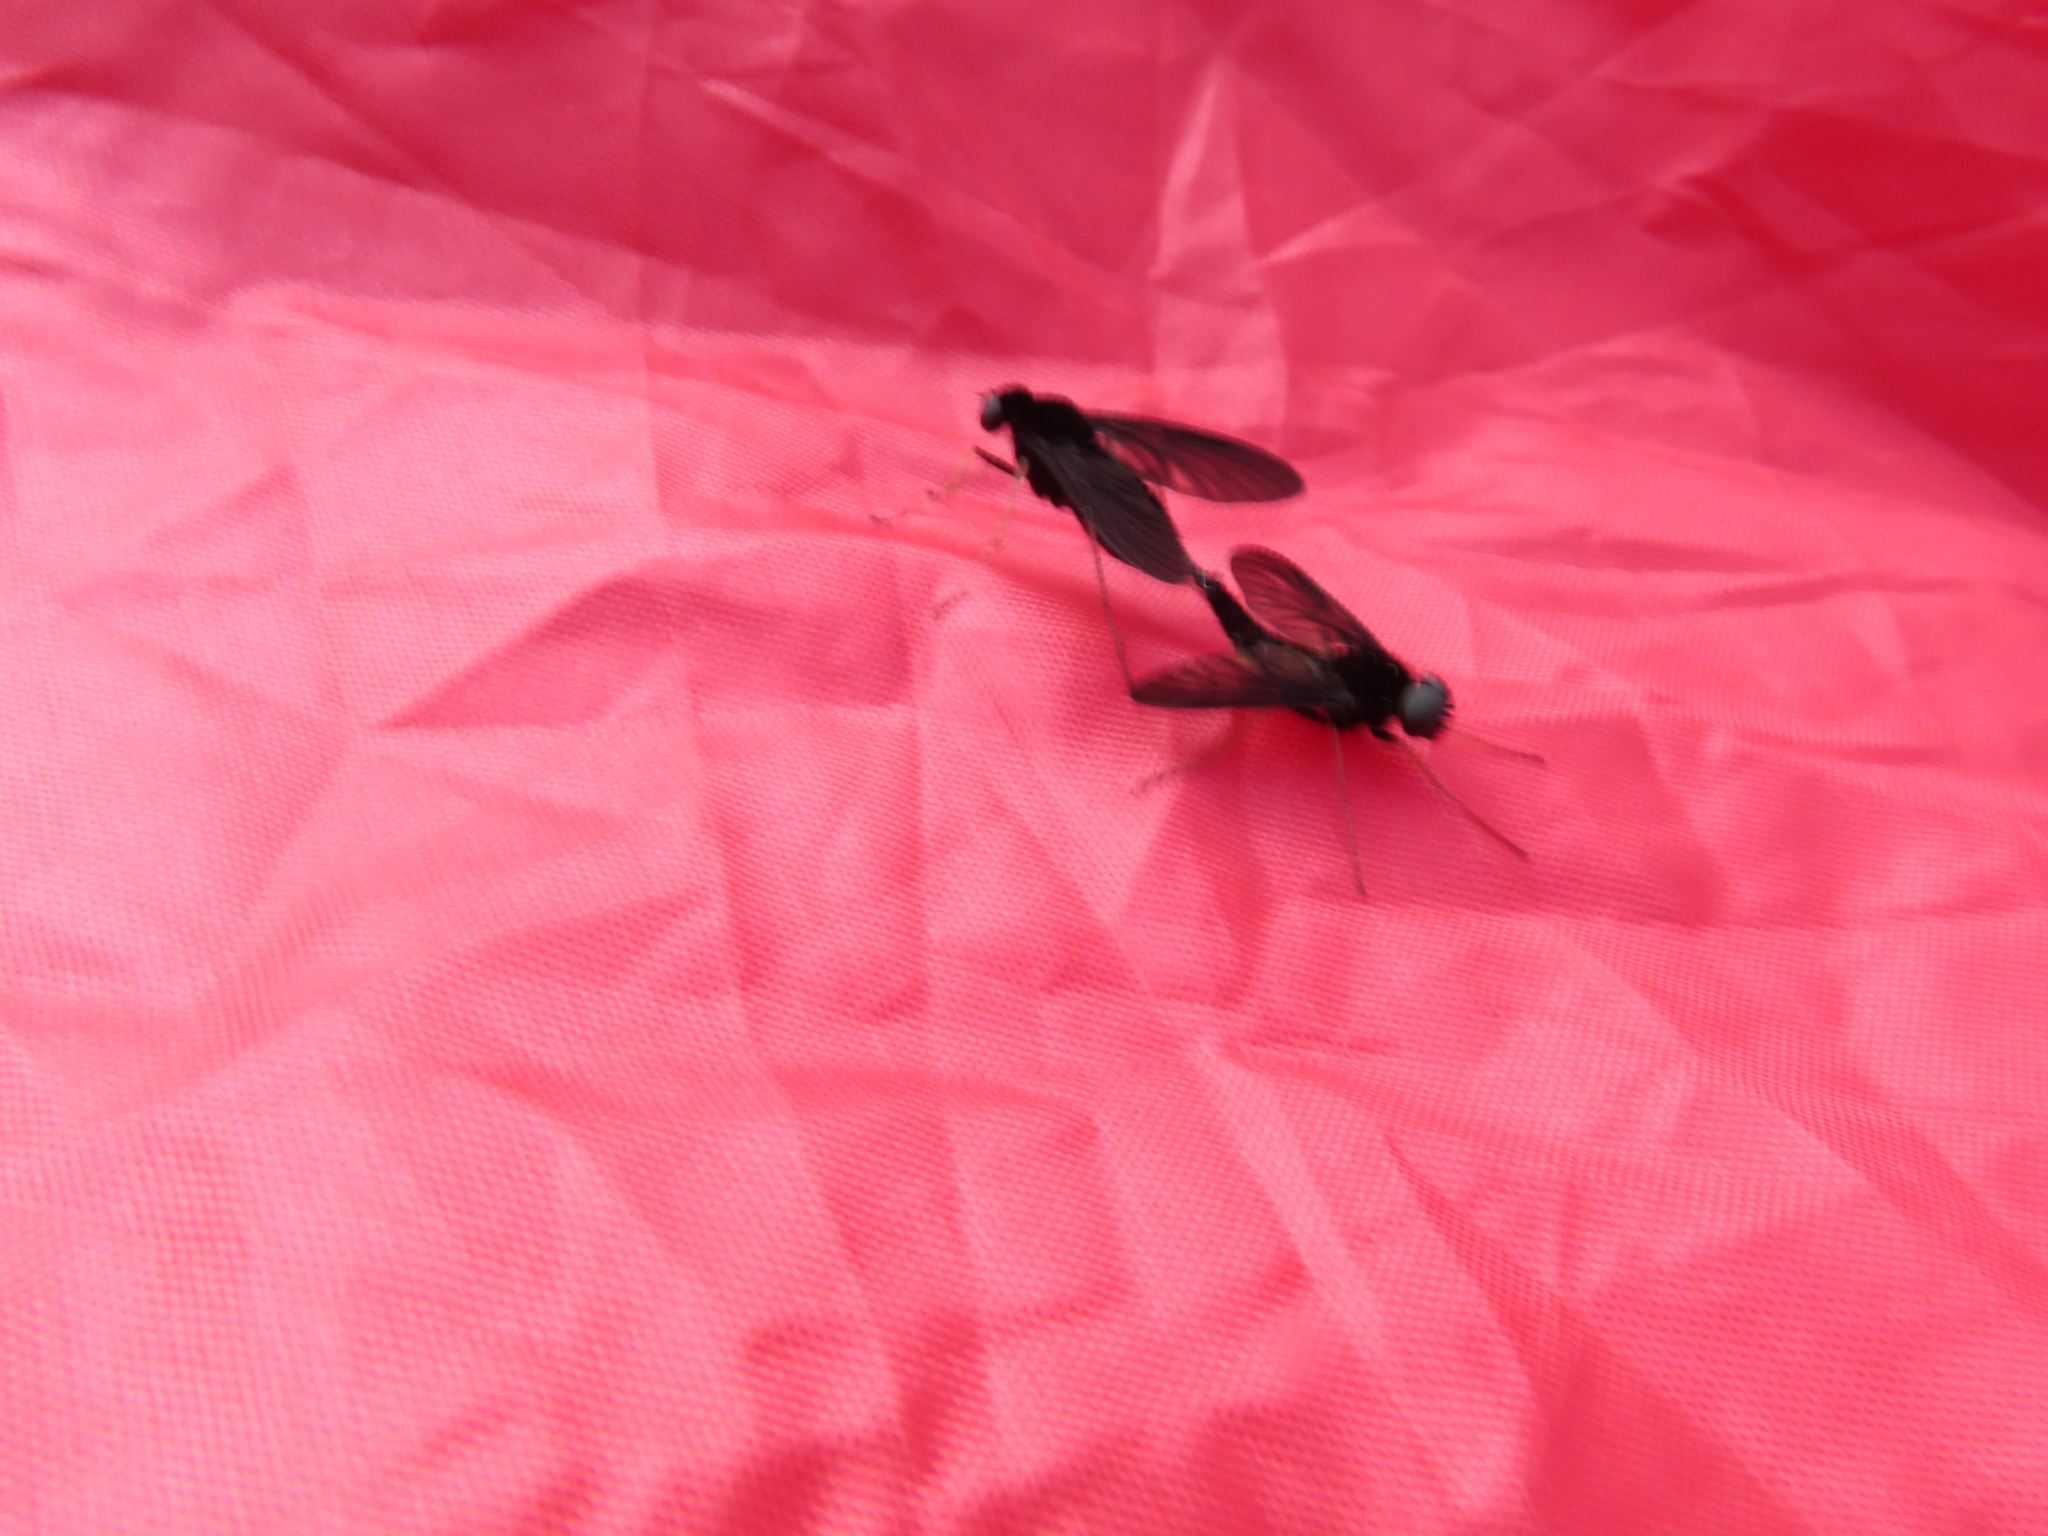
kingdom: Animalia
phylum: Arthropoda
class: Insecta
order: Diptera
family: Rhagionidae
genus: Chrysopilus
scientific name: Chrysopilus velutinus
